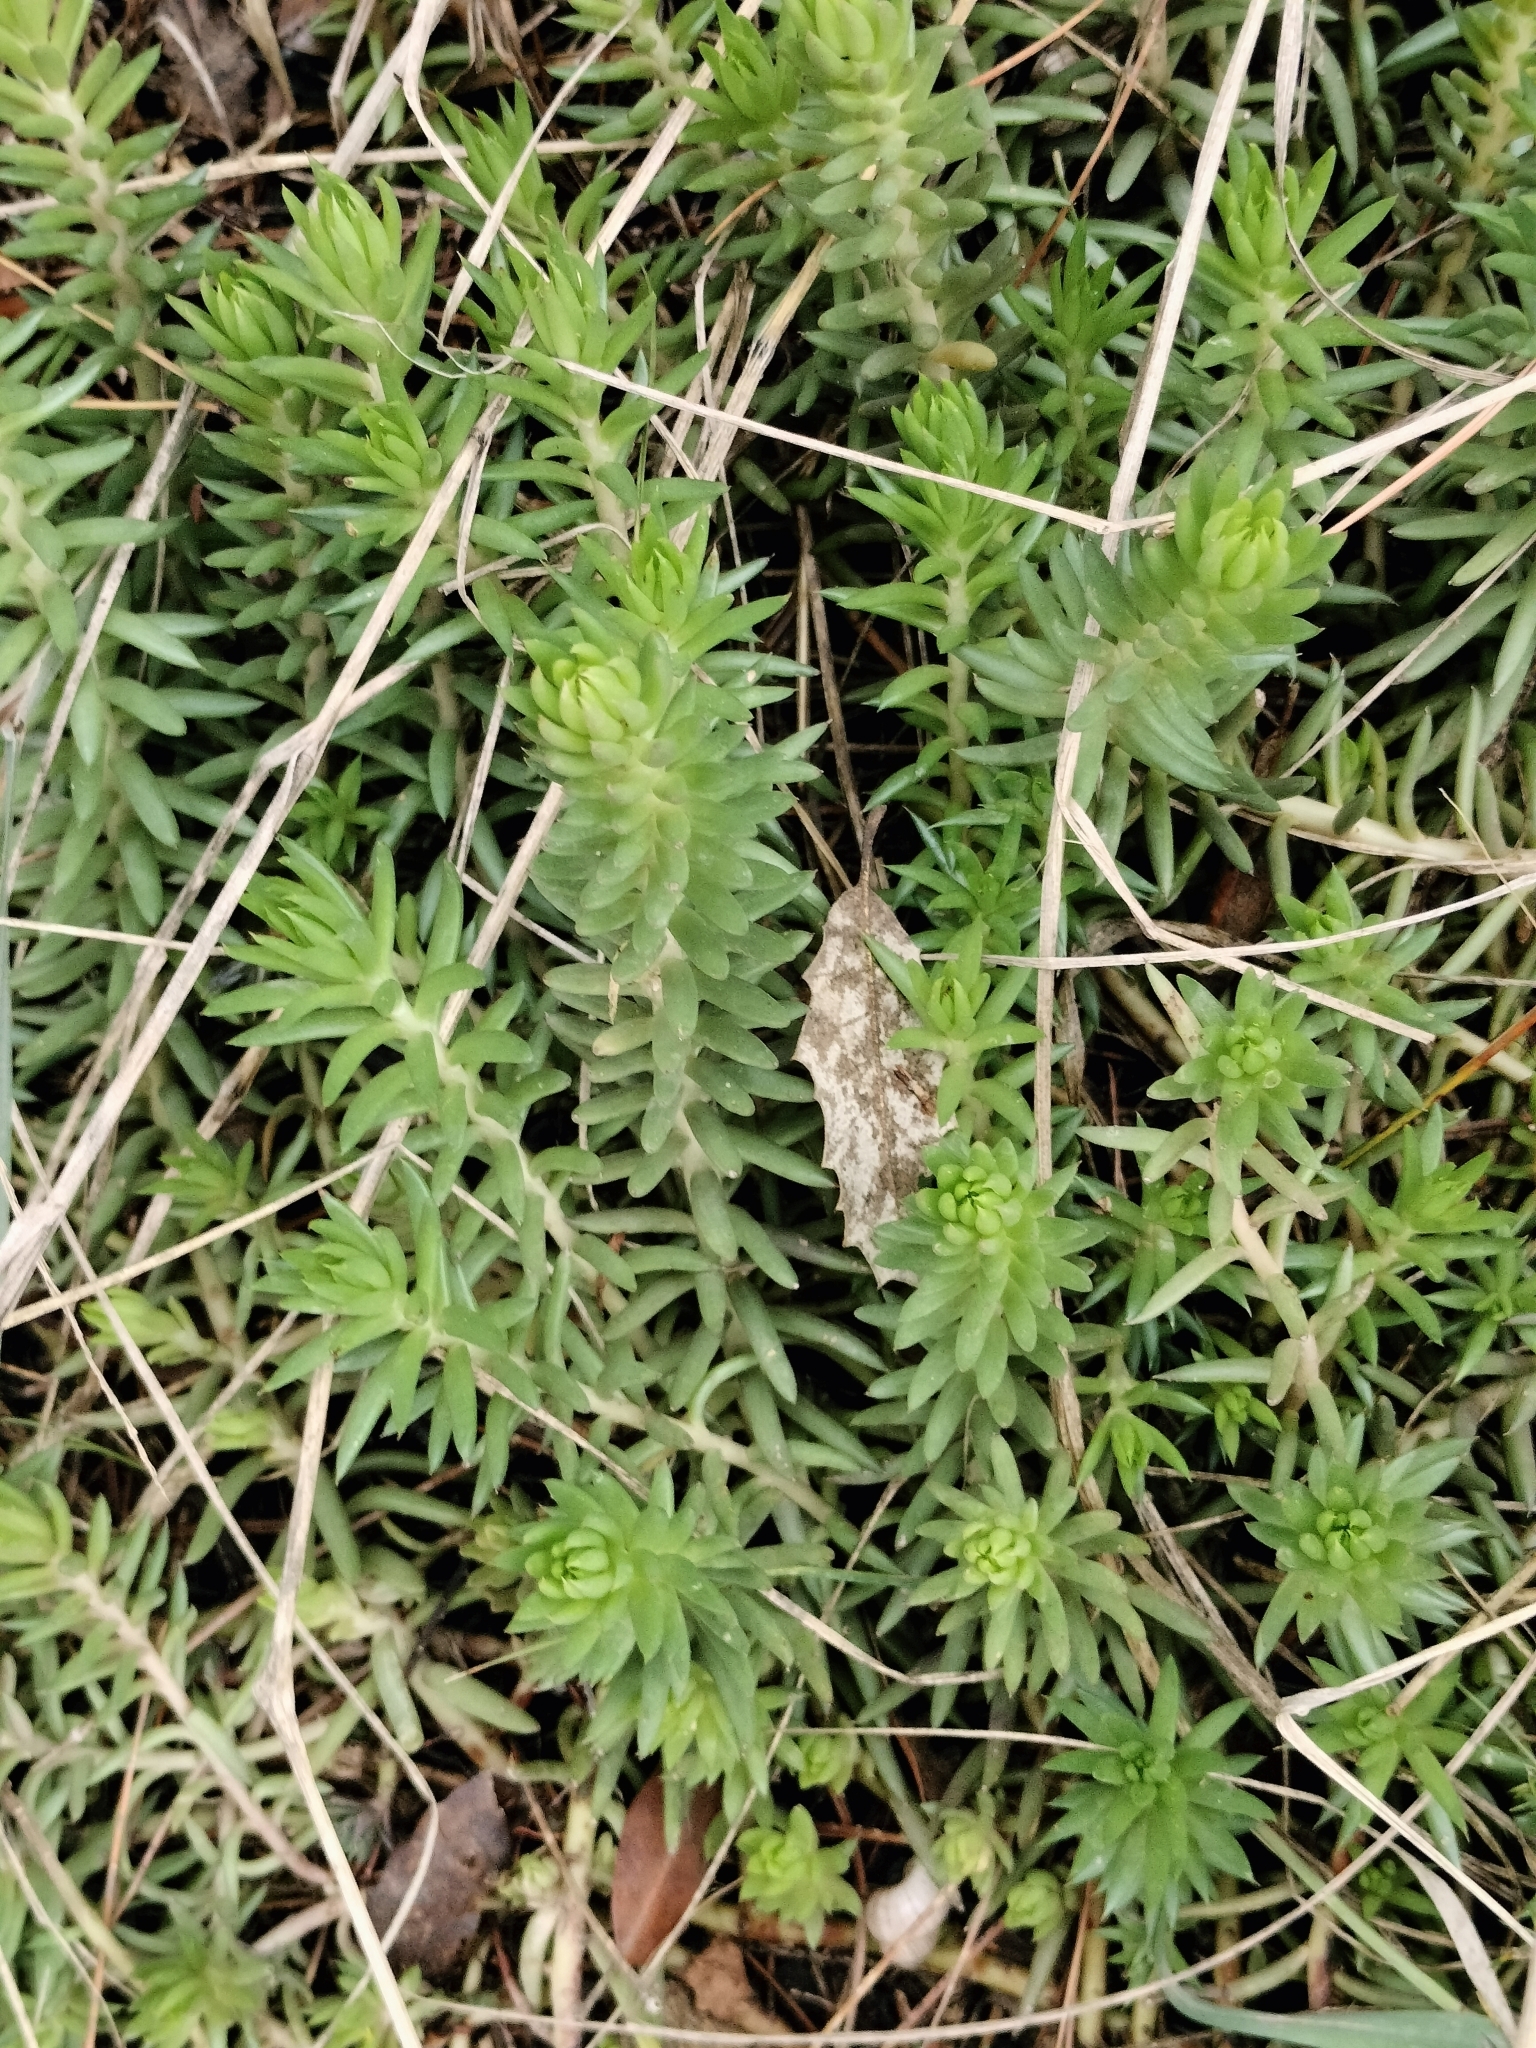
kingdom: Plantae
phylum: Tracheophyta
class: Magnoliopsida
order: Saxifragales
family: Crassulaceae
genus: Petrosedum
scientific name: Petrosedum rupestre
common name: Jenny's stonecrop
